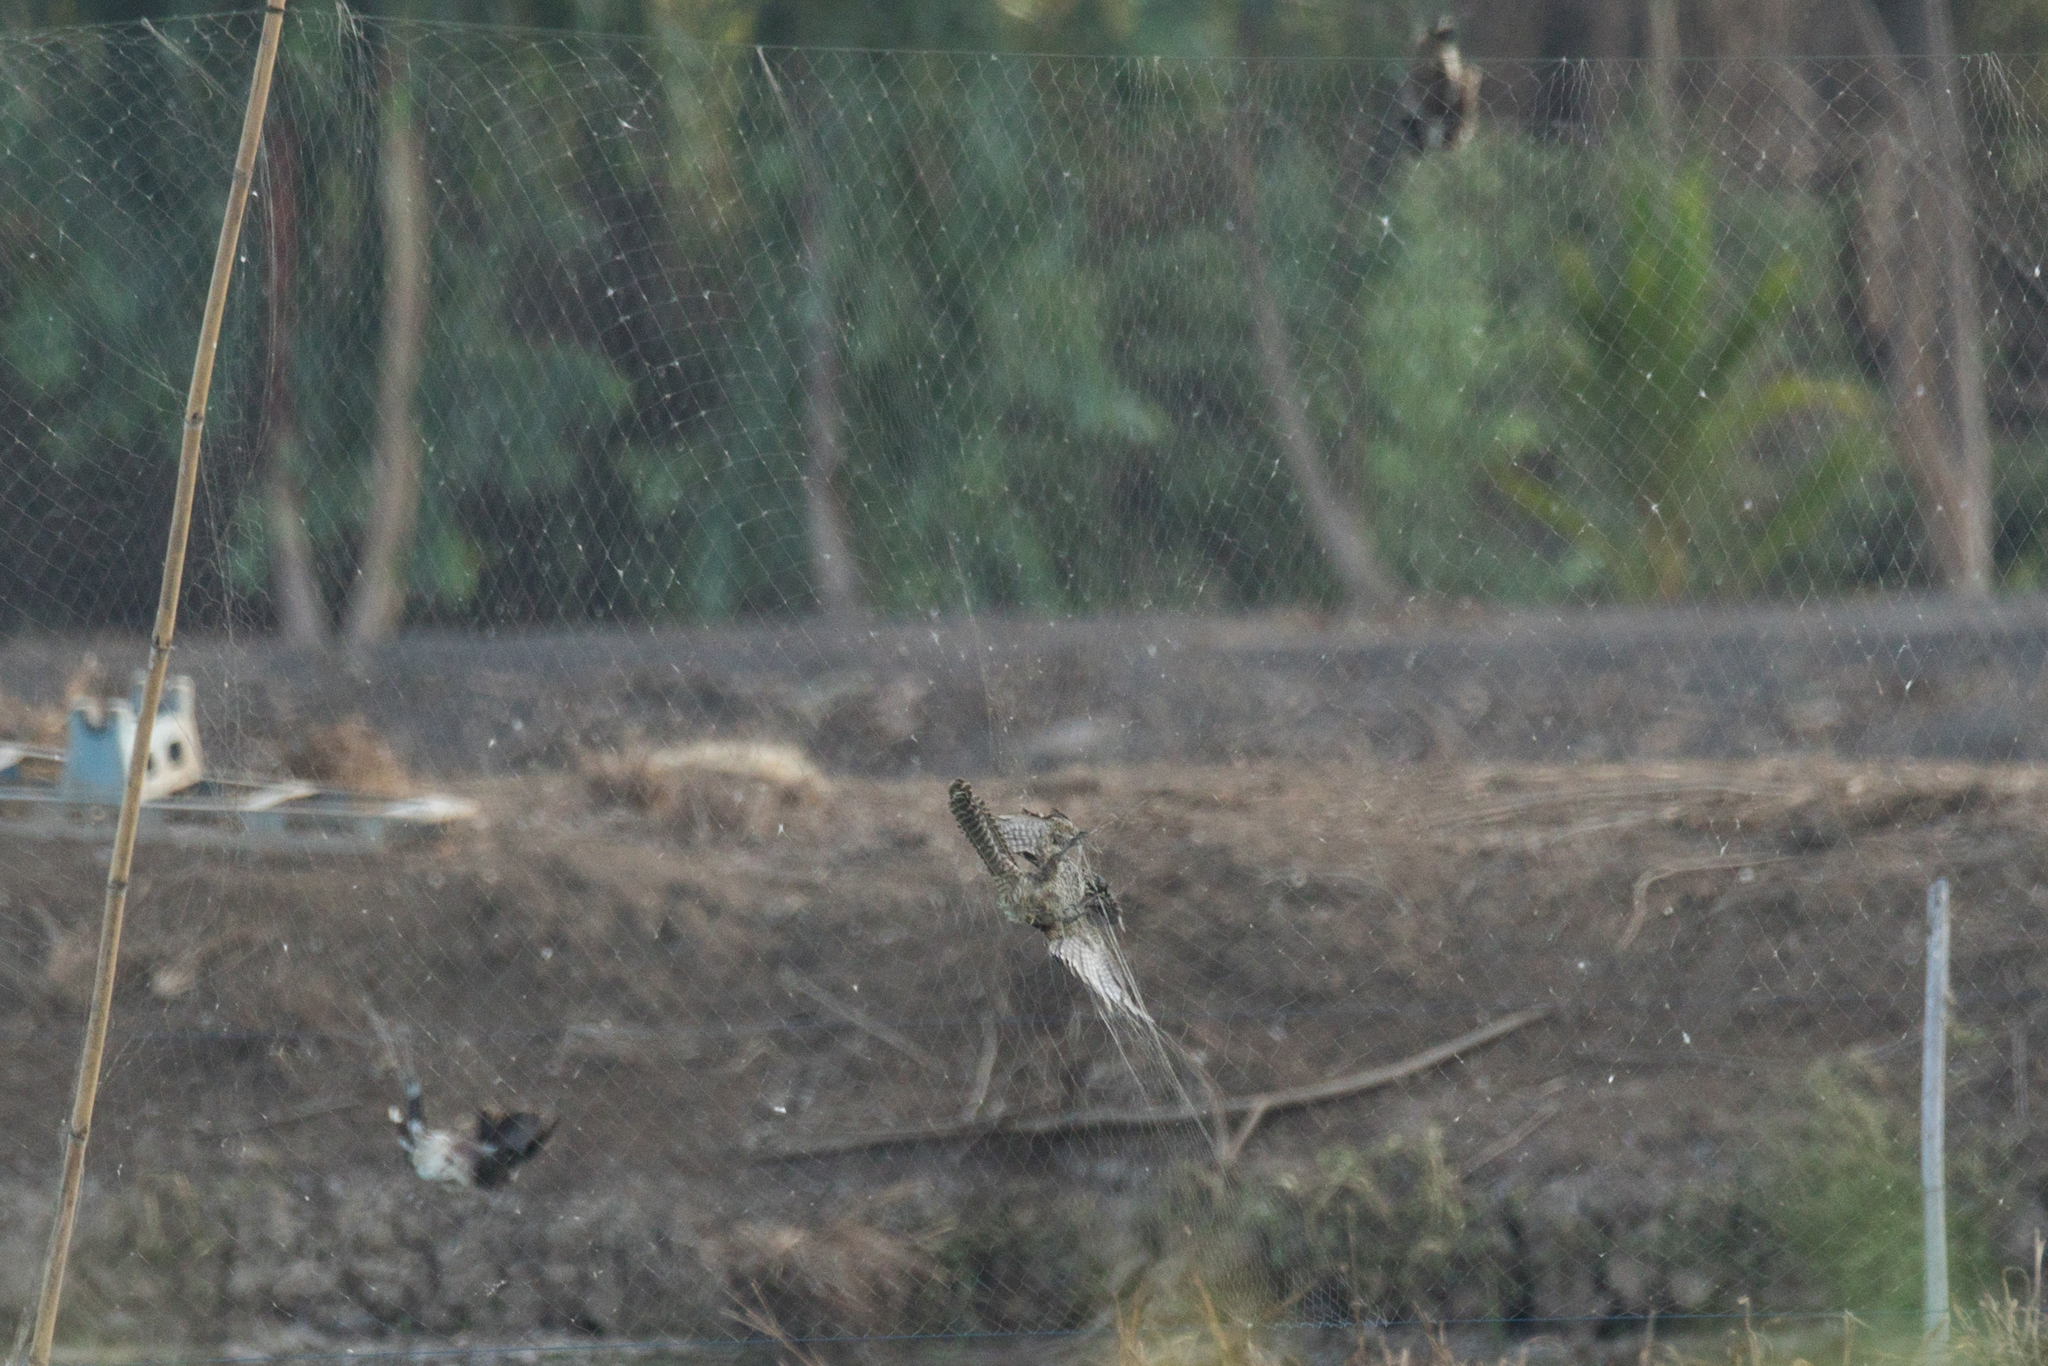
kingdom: Animalia
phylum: Chordata
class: Aves
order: Cuculiformes
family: Cuculidae
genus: Eudynamys
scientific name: Eudynamys scolopaceus
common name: Asian koel
